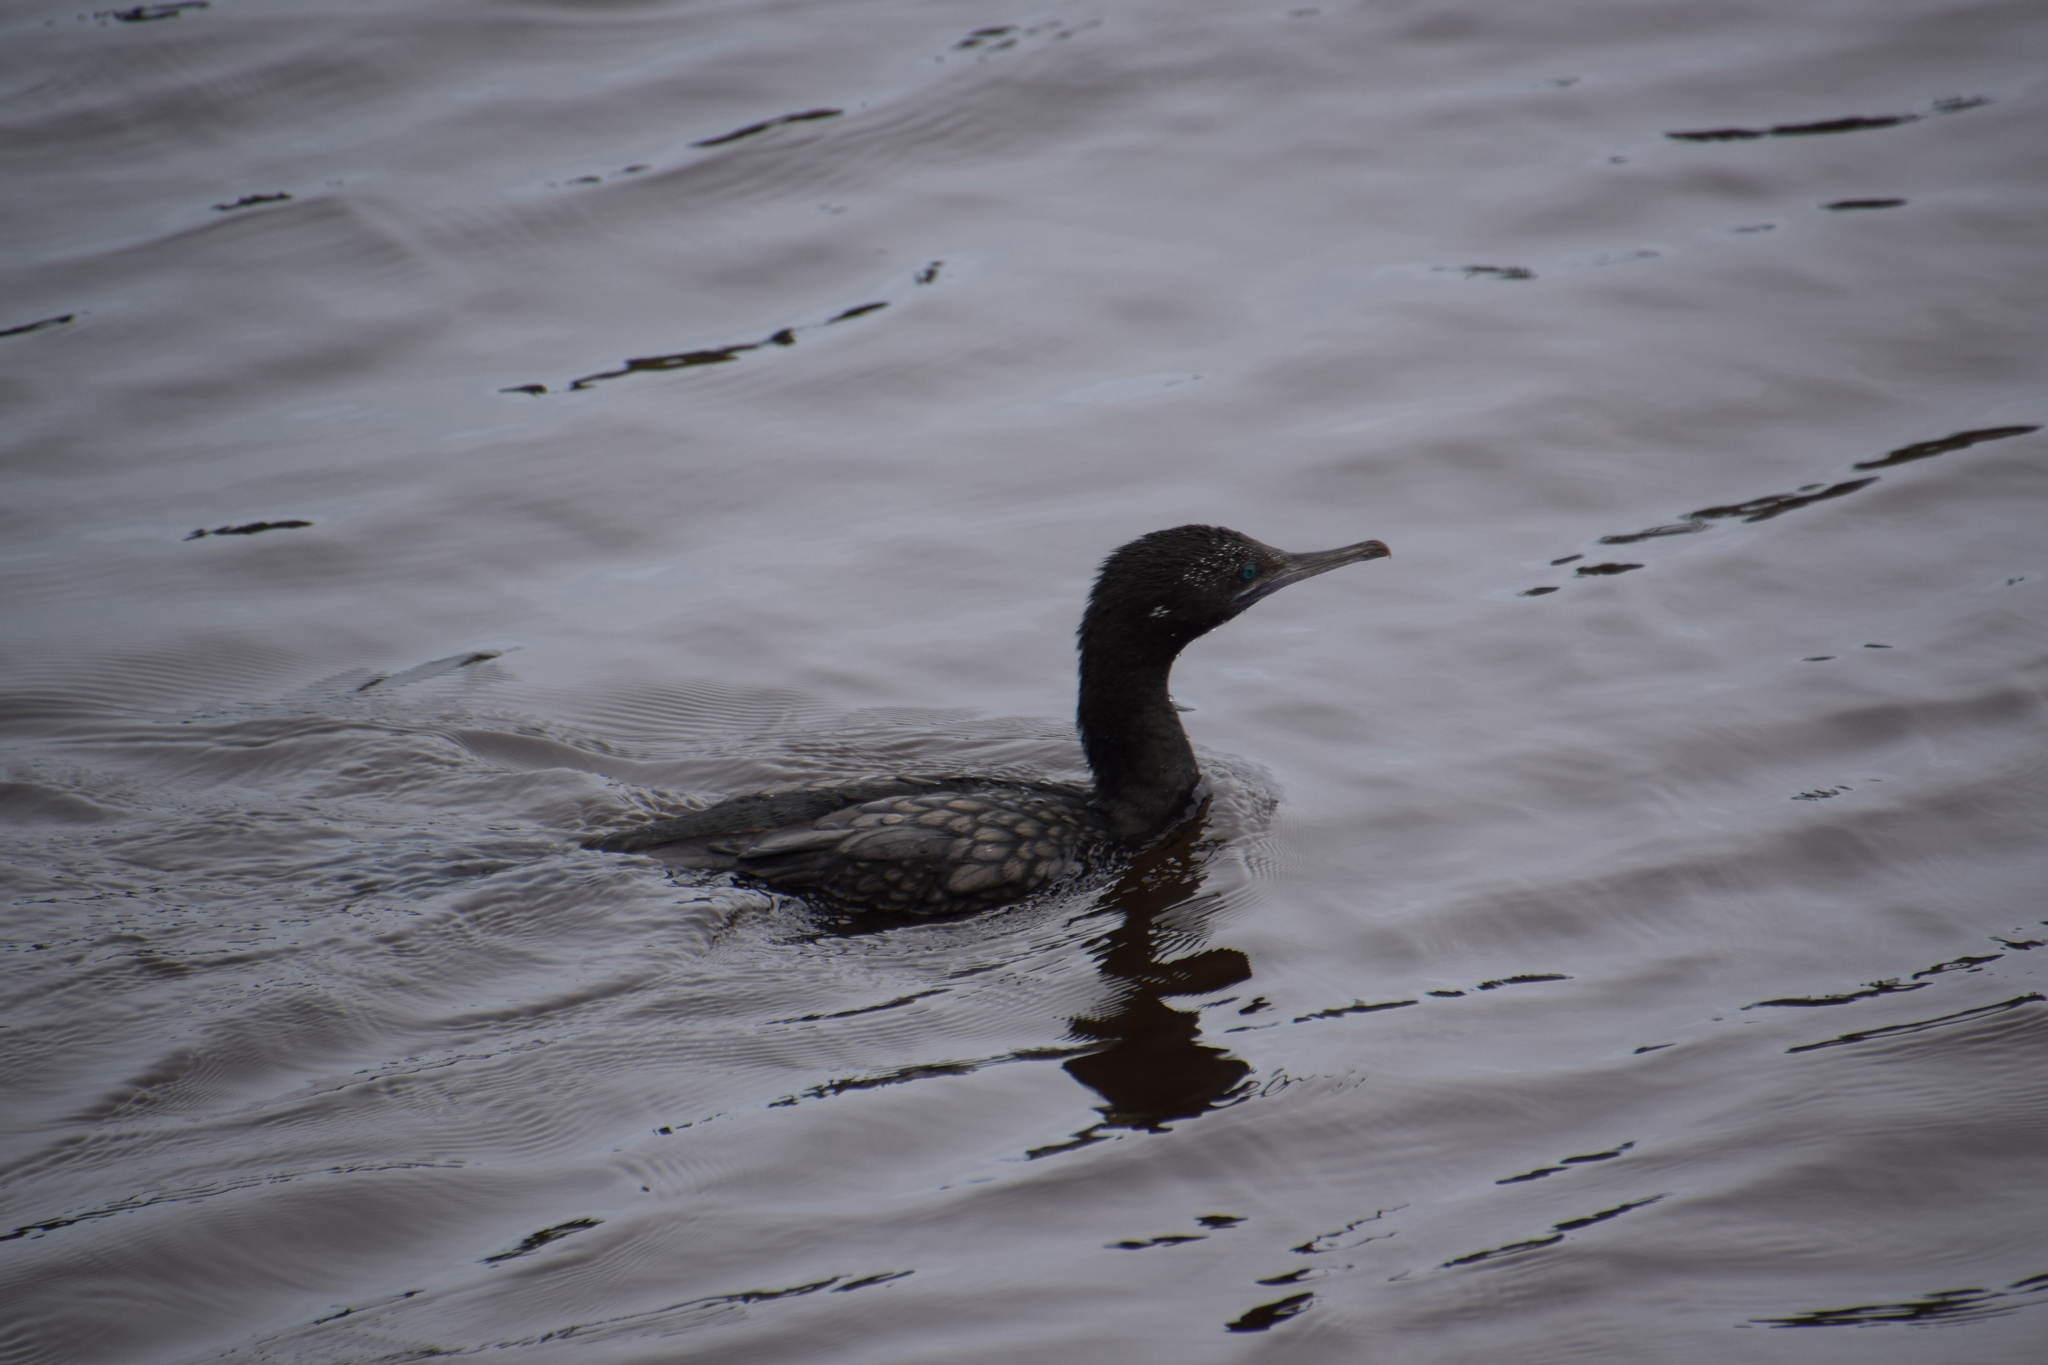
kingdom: Animalia
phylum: Chordata
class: Aves
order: Suliformes
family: Phalacrocoracidae
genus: Phalacrocorax
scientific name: Phalacrocorax sulcirostris
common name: Little black cormorant
